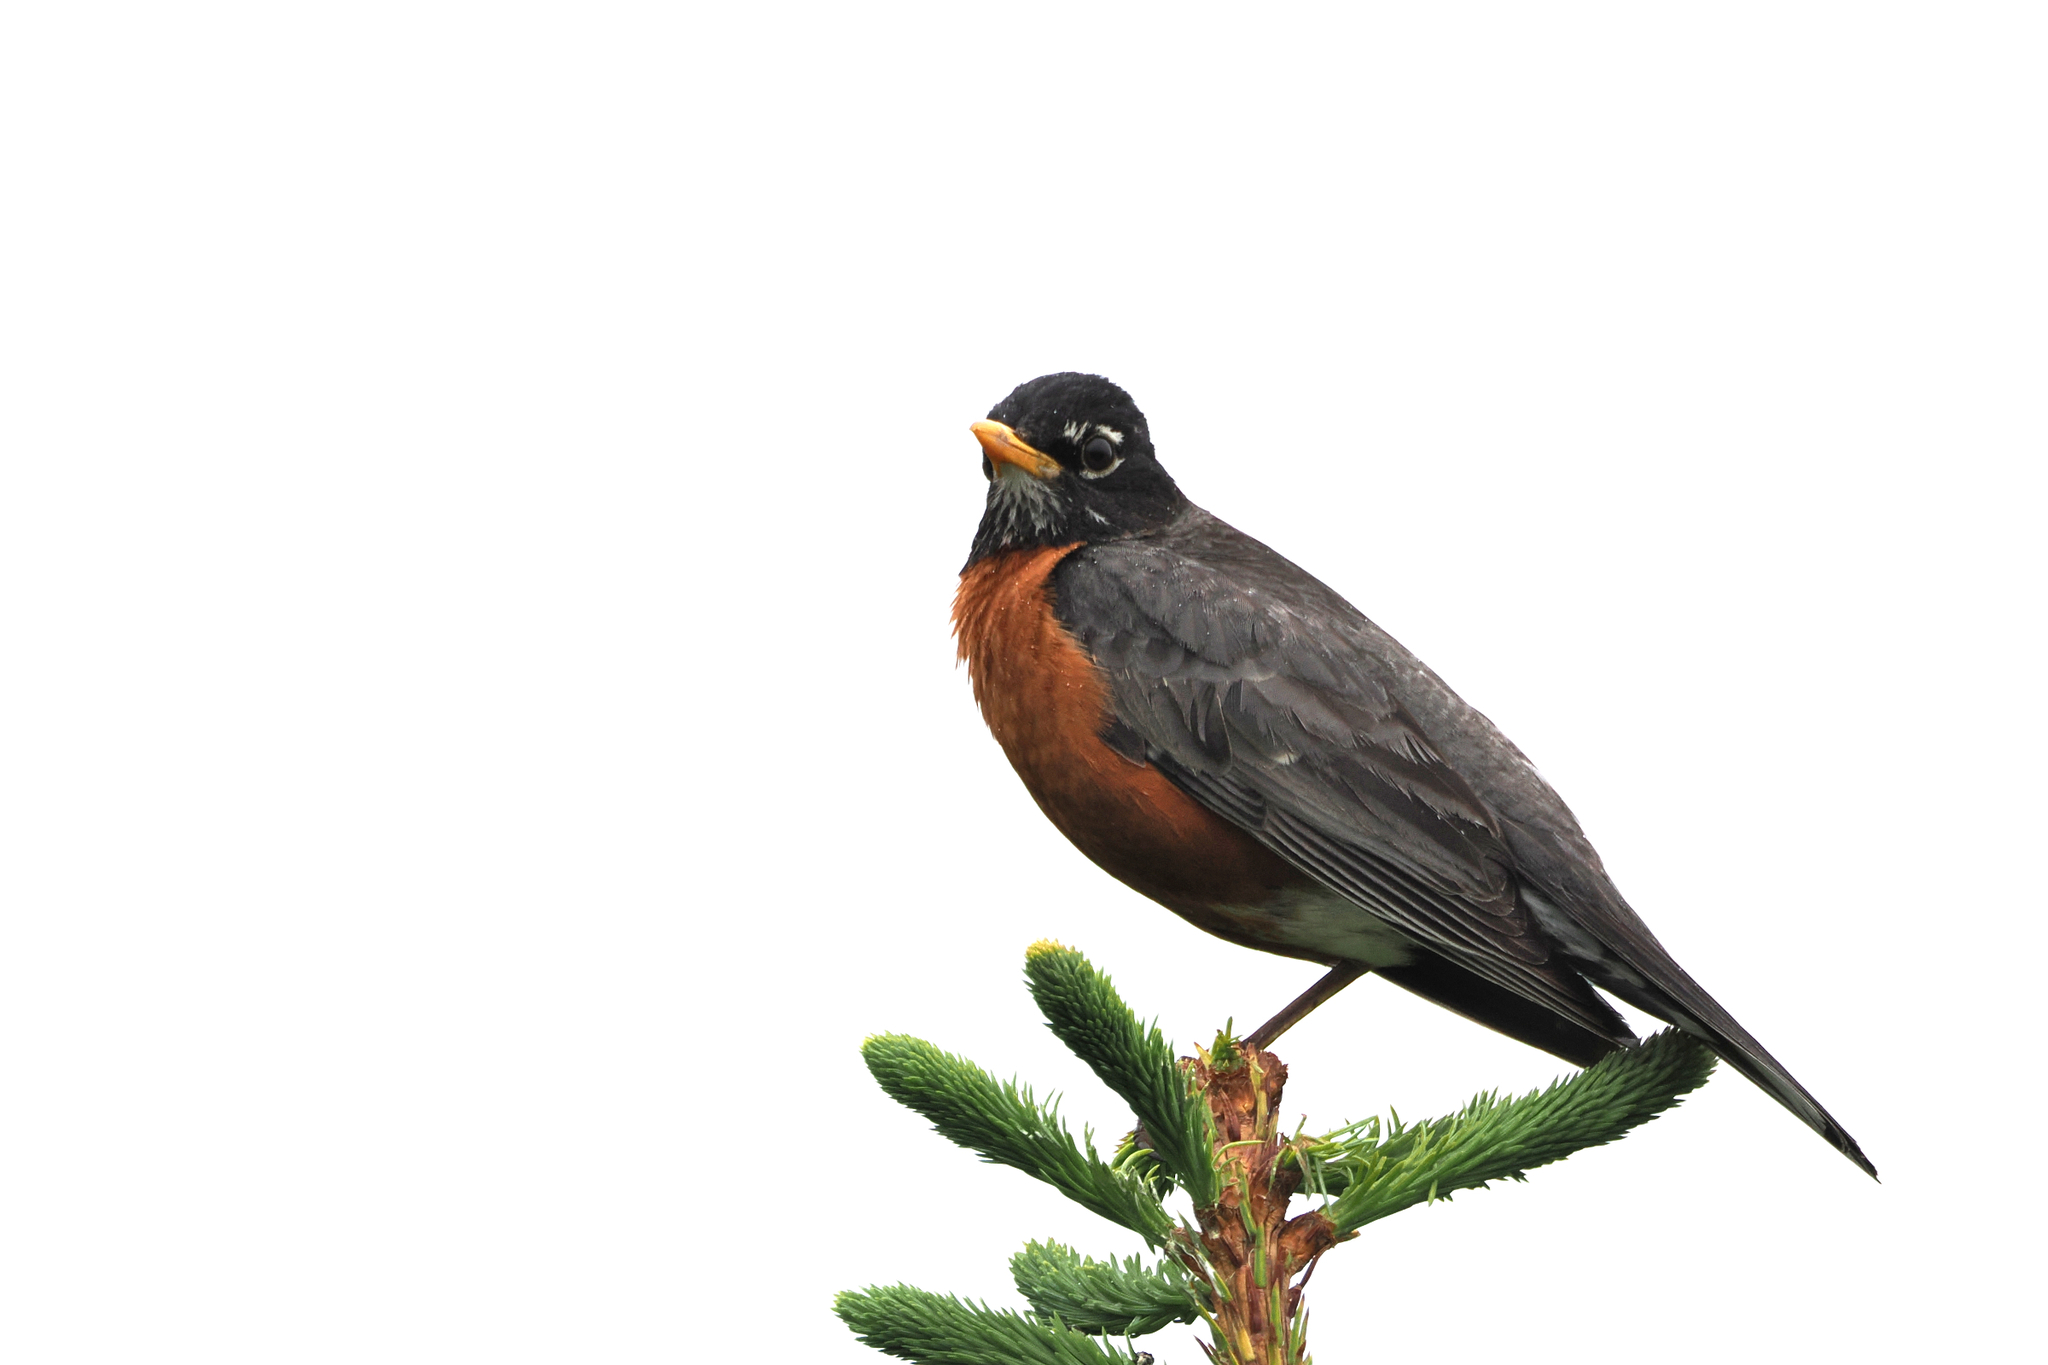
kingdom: Animalia
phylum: Chordata
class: Aves
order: Passeriformes
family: Turdidae
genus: Turdus
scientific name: Turdus migratorius
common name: American robin
